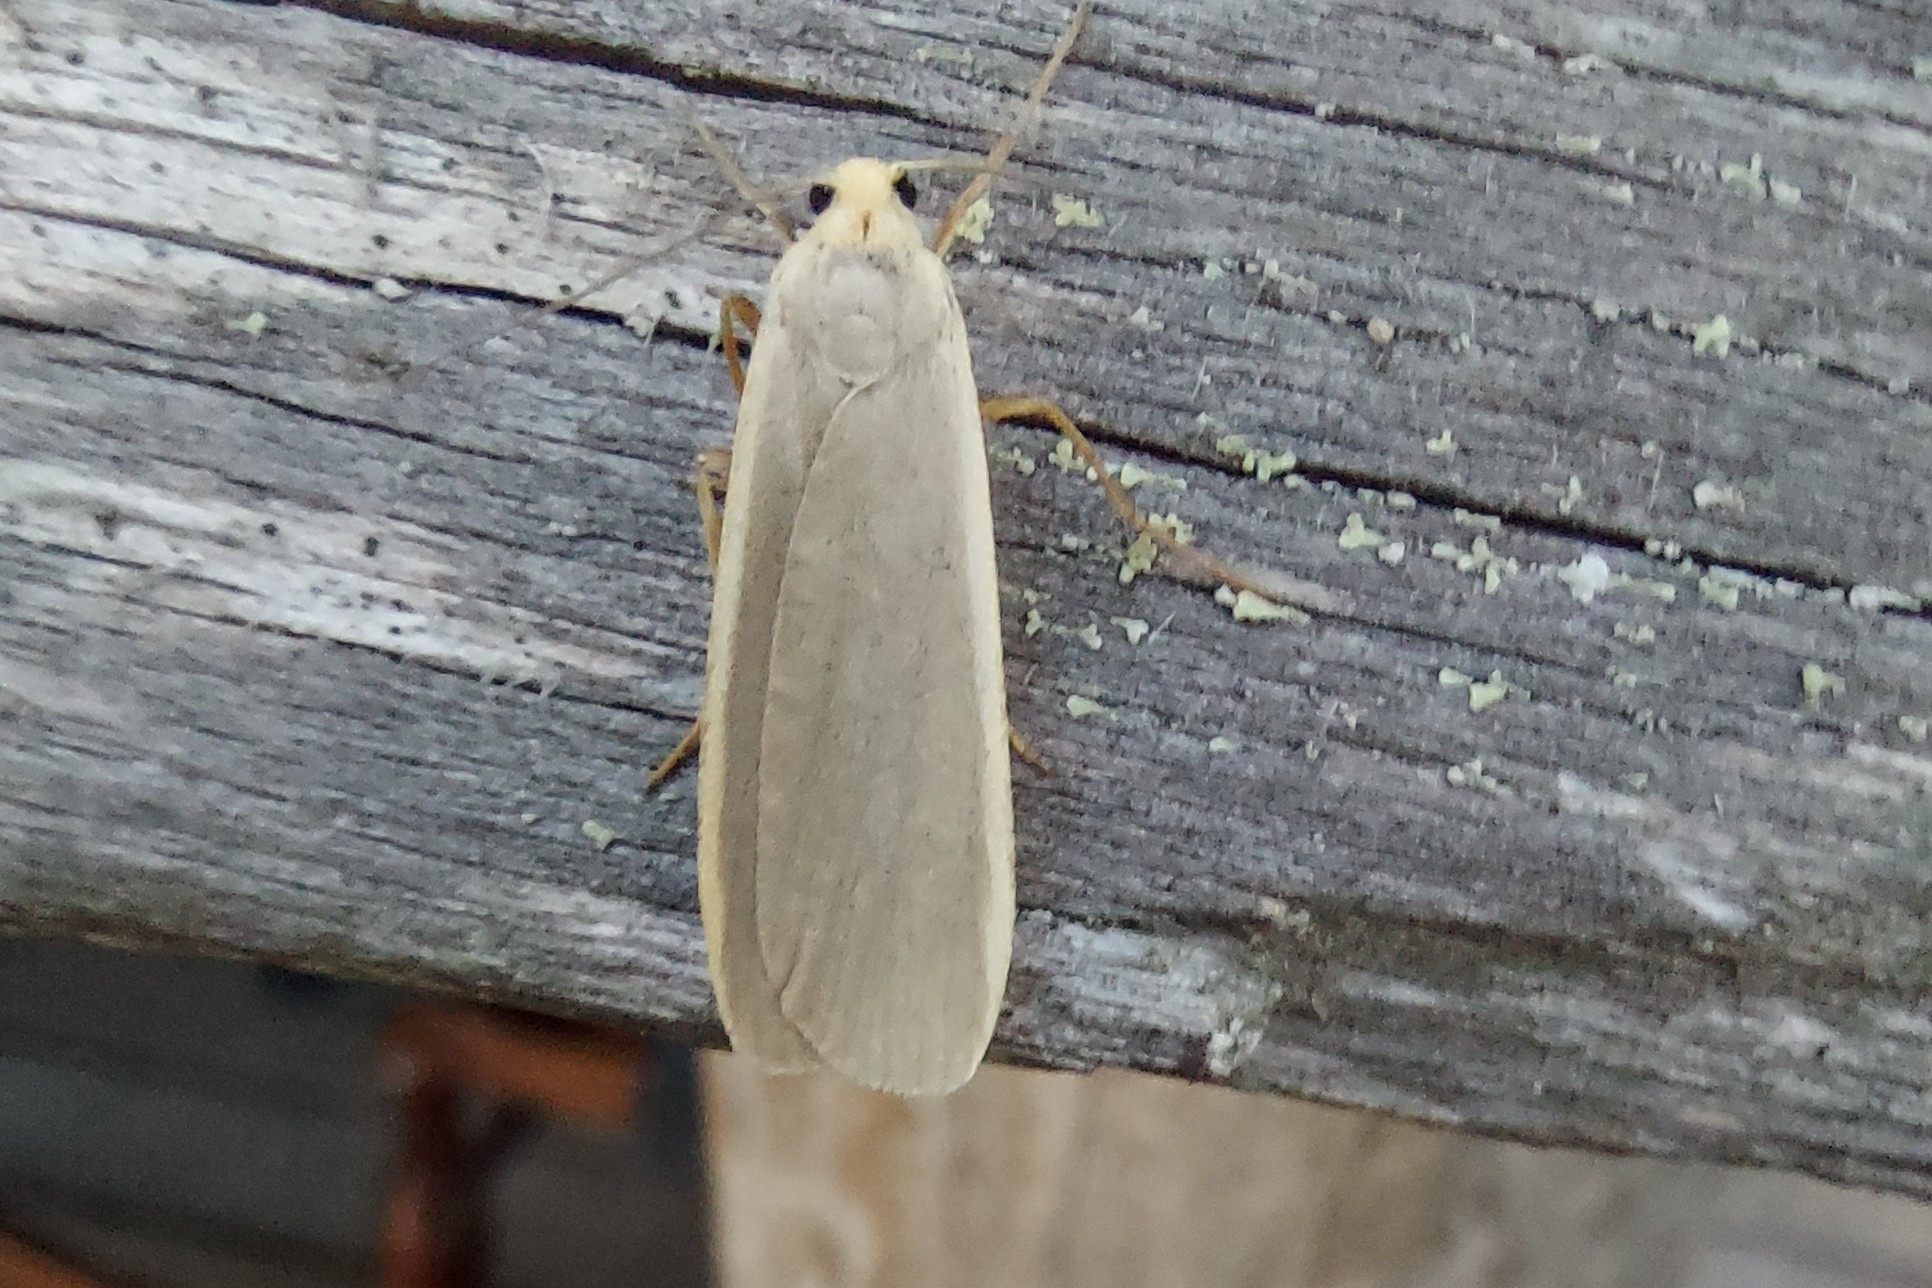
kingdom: Animalia
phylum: Arthropoda
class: Insecta
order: Lepidoptera
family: Erebidae
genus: Nyea
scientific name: Nyea lurideola
